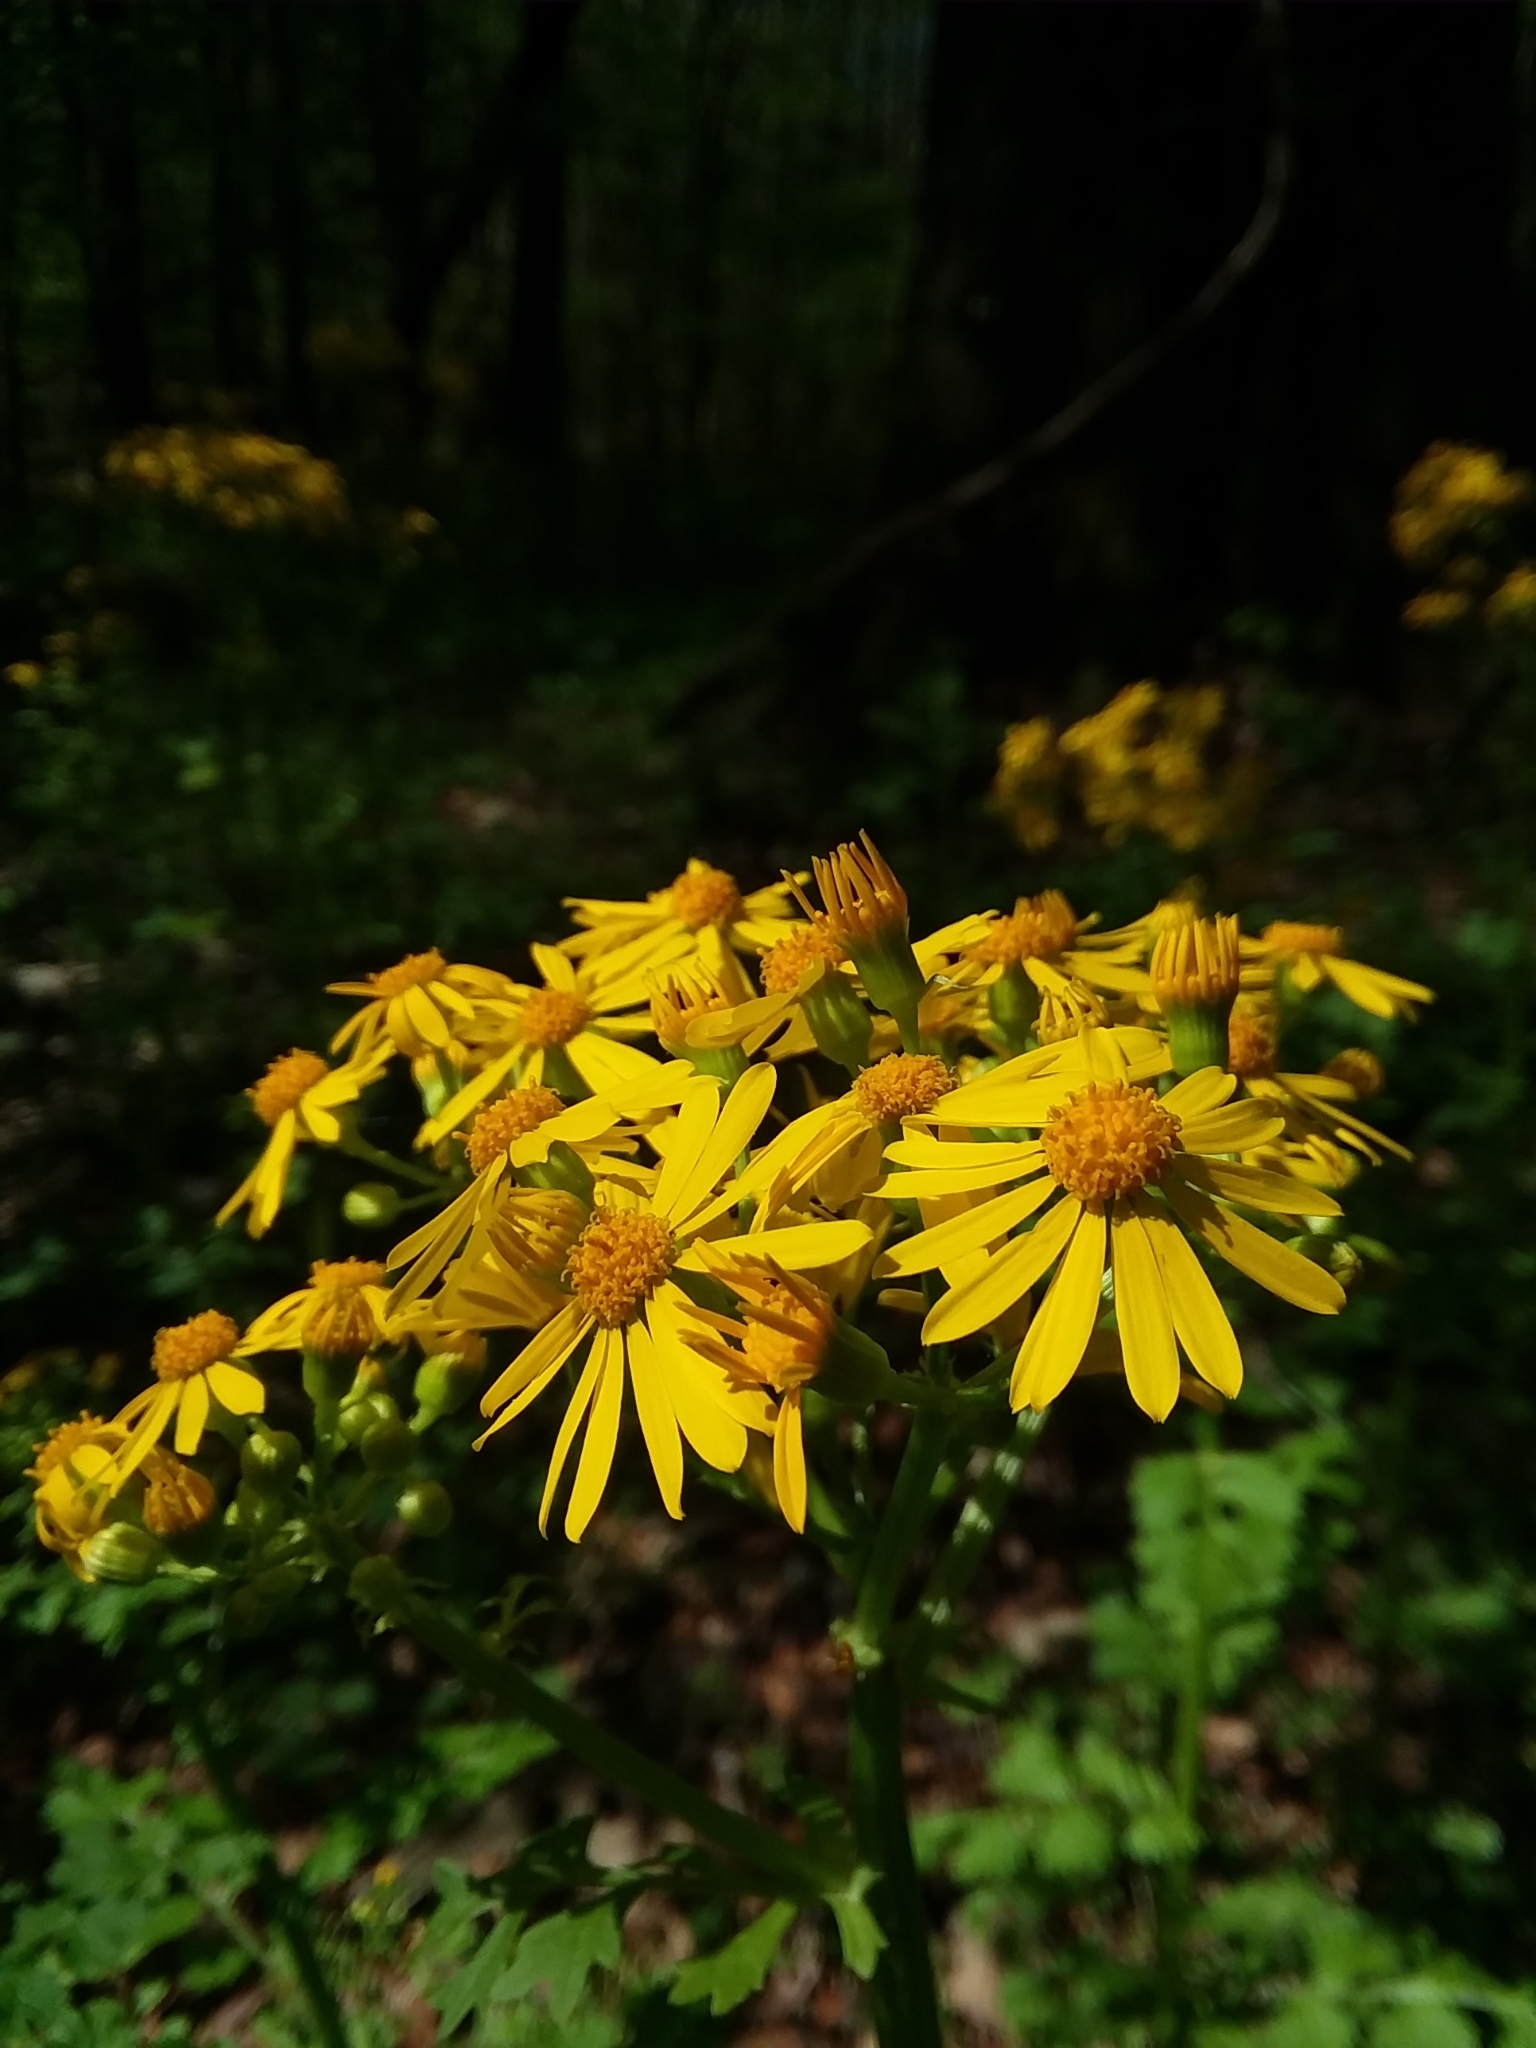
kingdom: Plantae
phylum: Tracheophyta
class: Magnoliopsida
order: Asterales
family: Asteraceae
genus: Packera
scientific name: Packera glabella
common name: Butterweed
